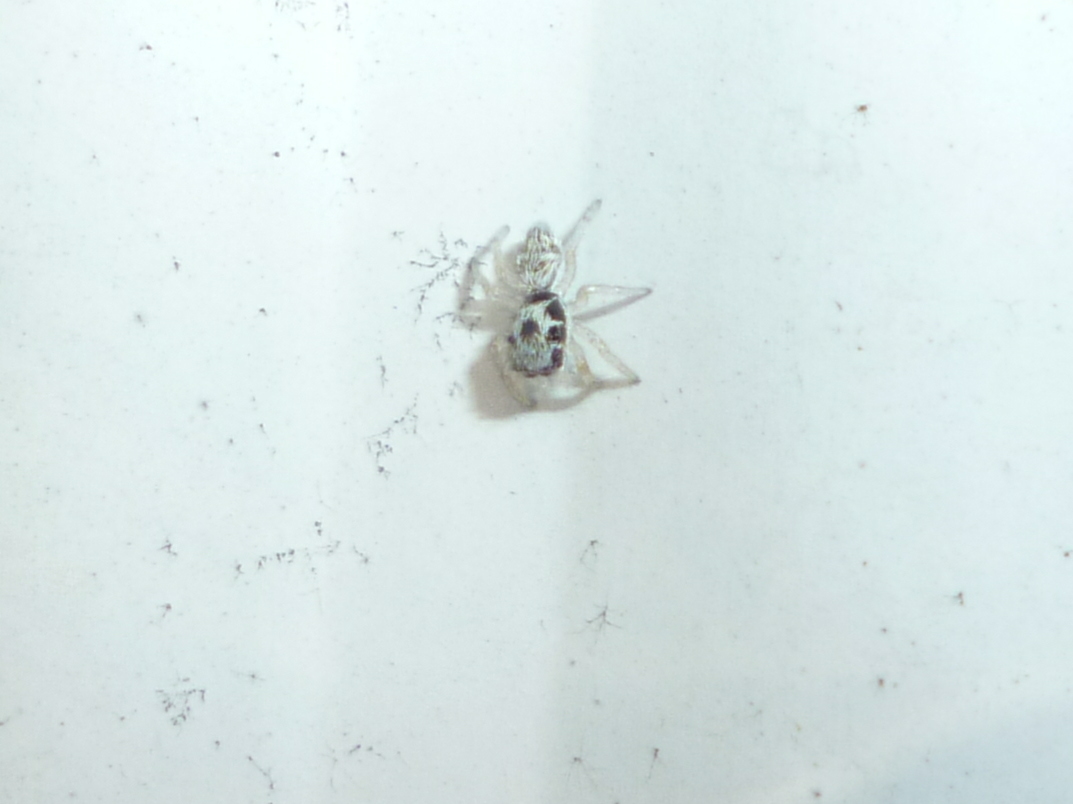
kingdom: Animalia
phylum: Arthropoda
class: Arachnida
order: Araneae
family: Salticidae
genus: Salticus
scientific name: Salticus scenicus
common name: Zebra jumper
